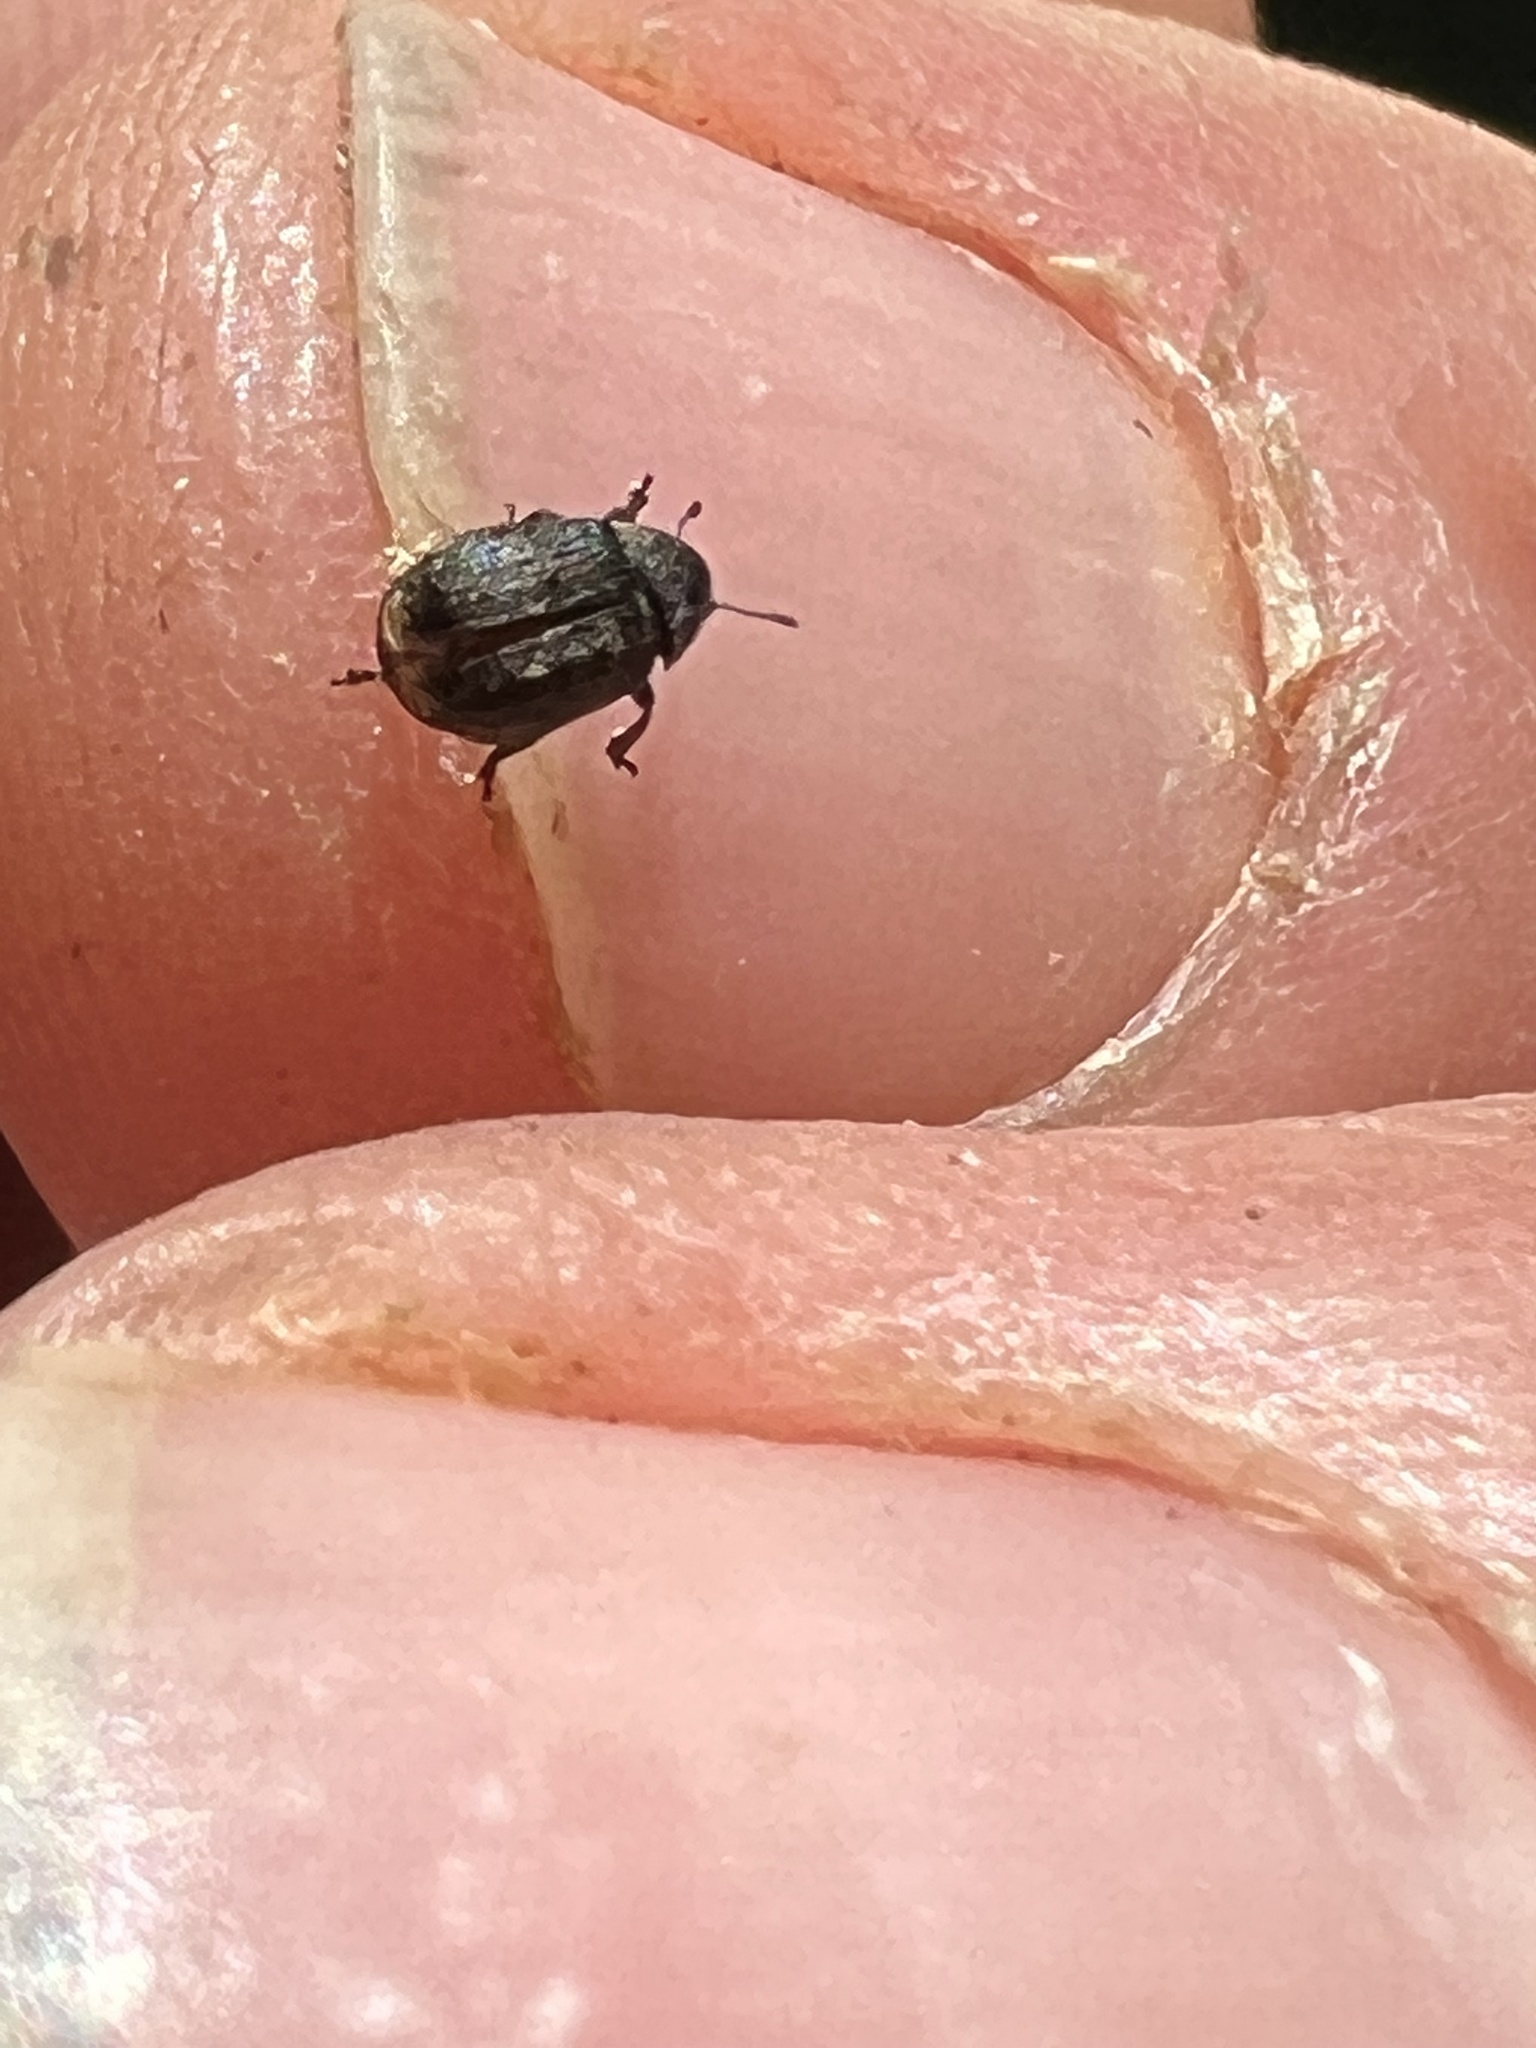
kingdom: Animalia
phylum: Arthropoda
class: Insecta
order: Coleoptera
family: Anthribidae
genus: Anthribus
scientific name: Anthribus nebulosus
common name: Fungus weevil
